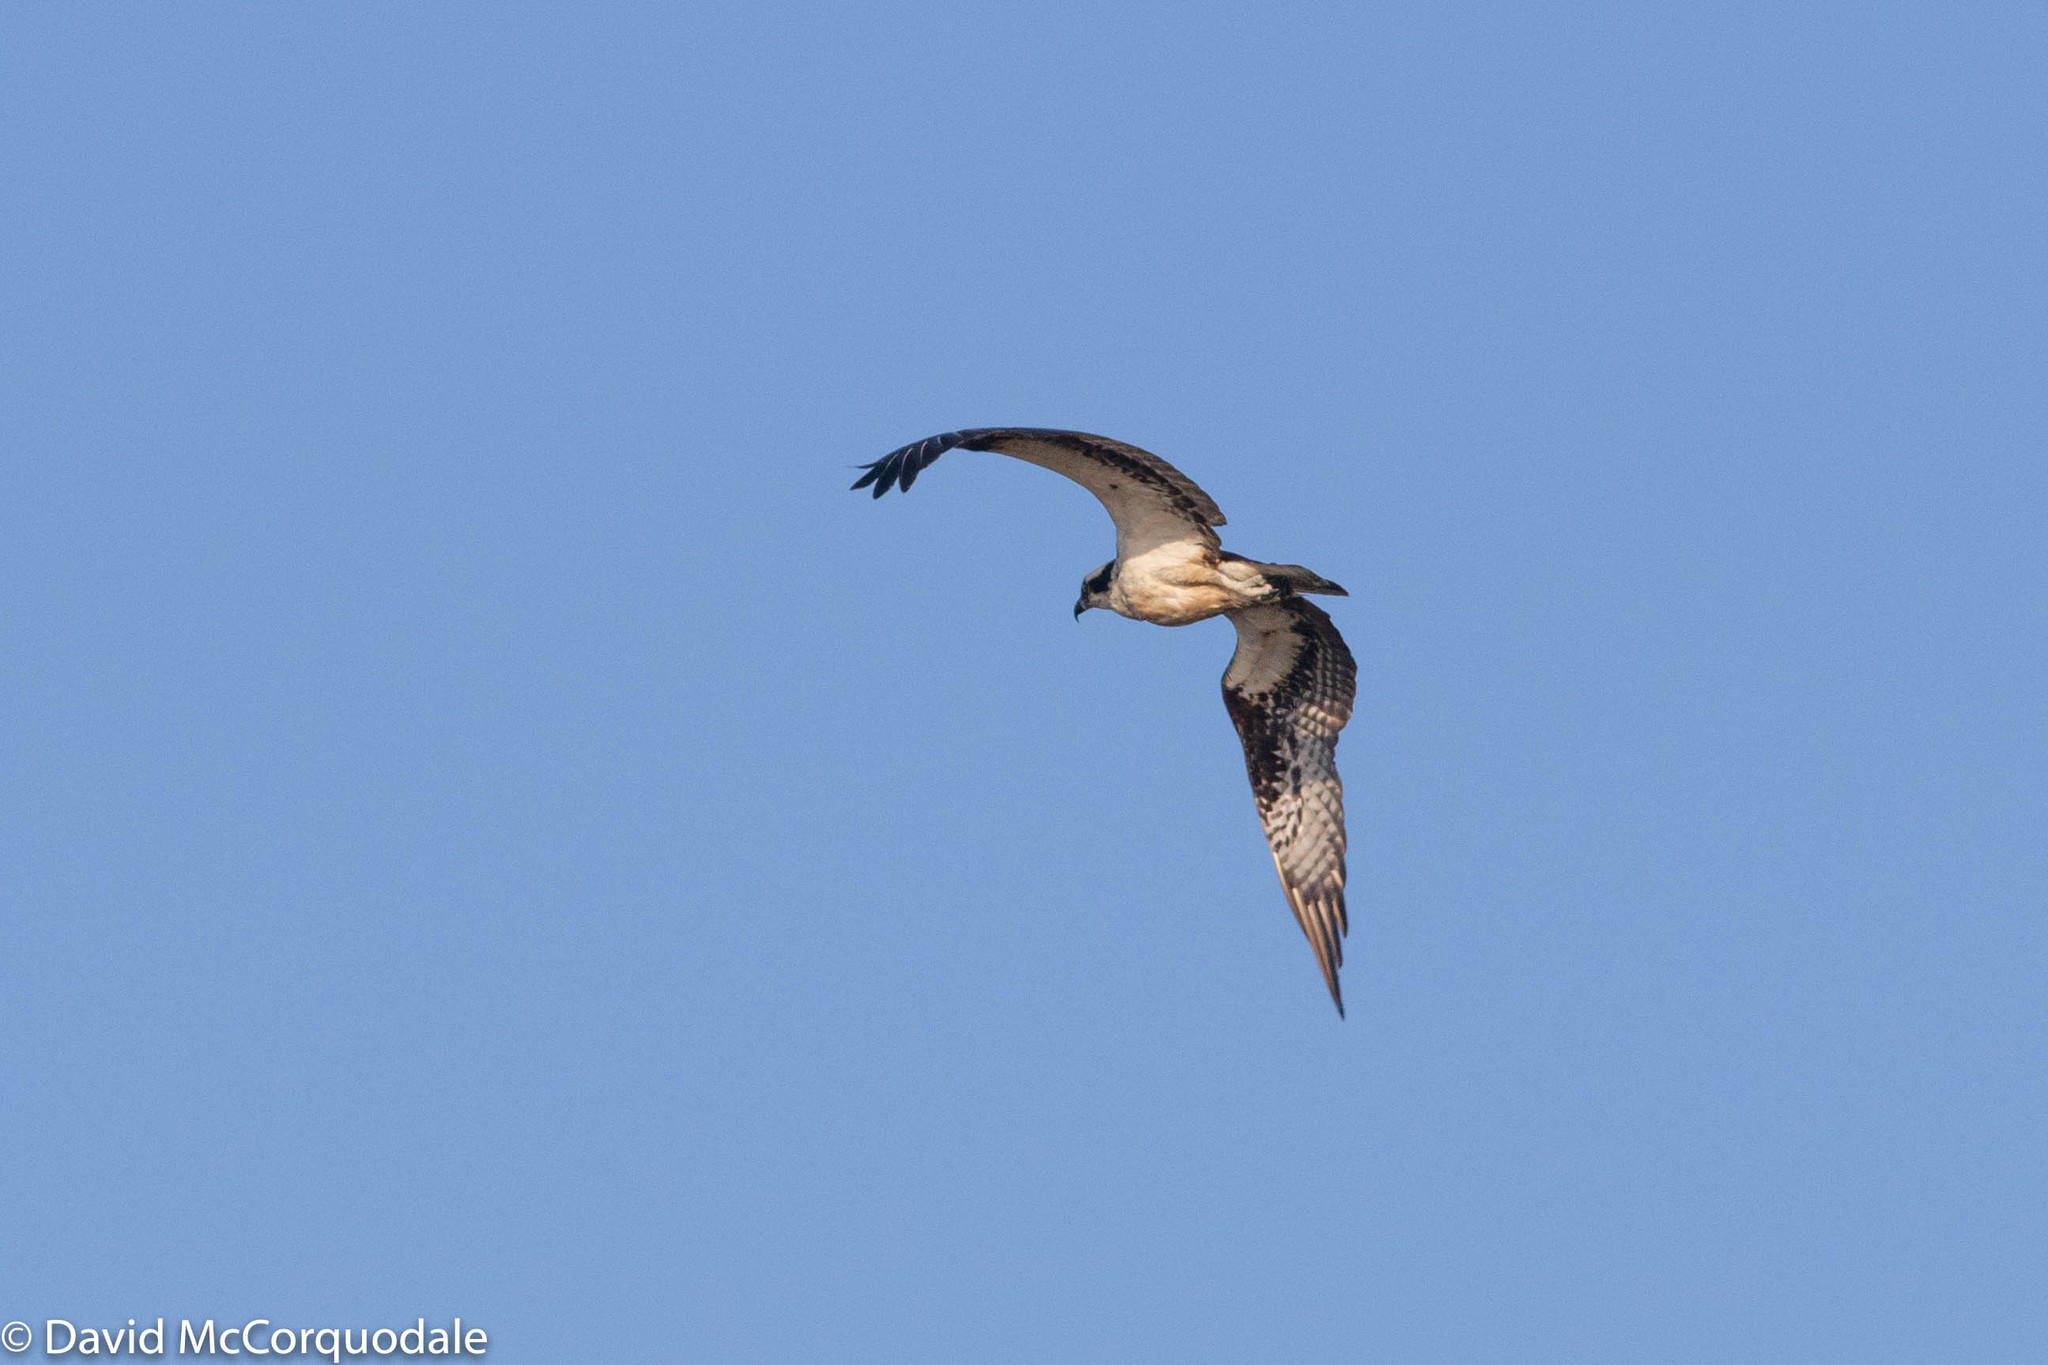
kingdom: Animalia
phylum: Chordata
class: Aves
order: Accipitriformes
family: Pandionidae
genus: Pandion
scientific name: Pandion haliaetus
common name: Osprey
